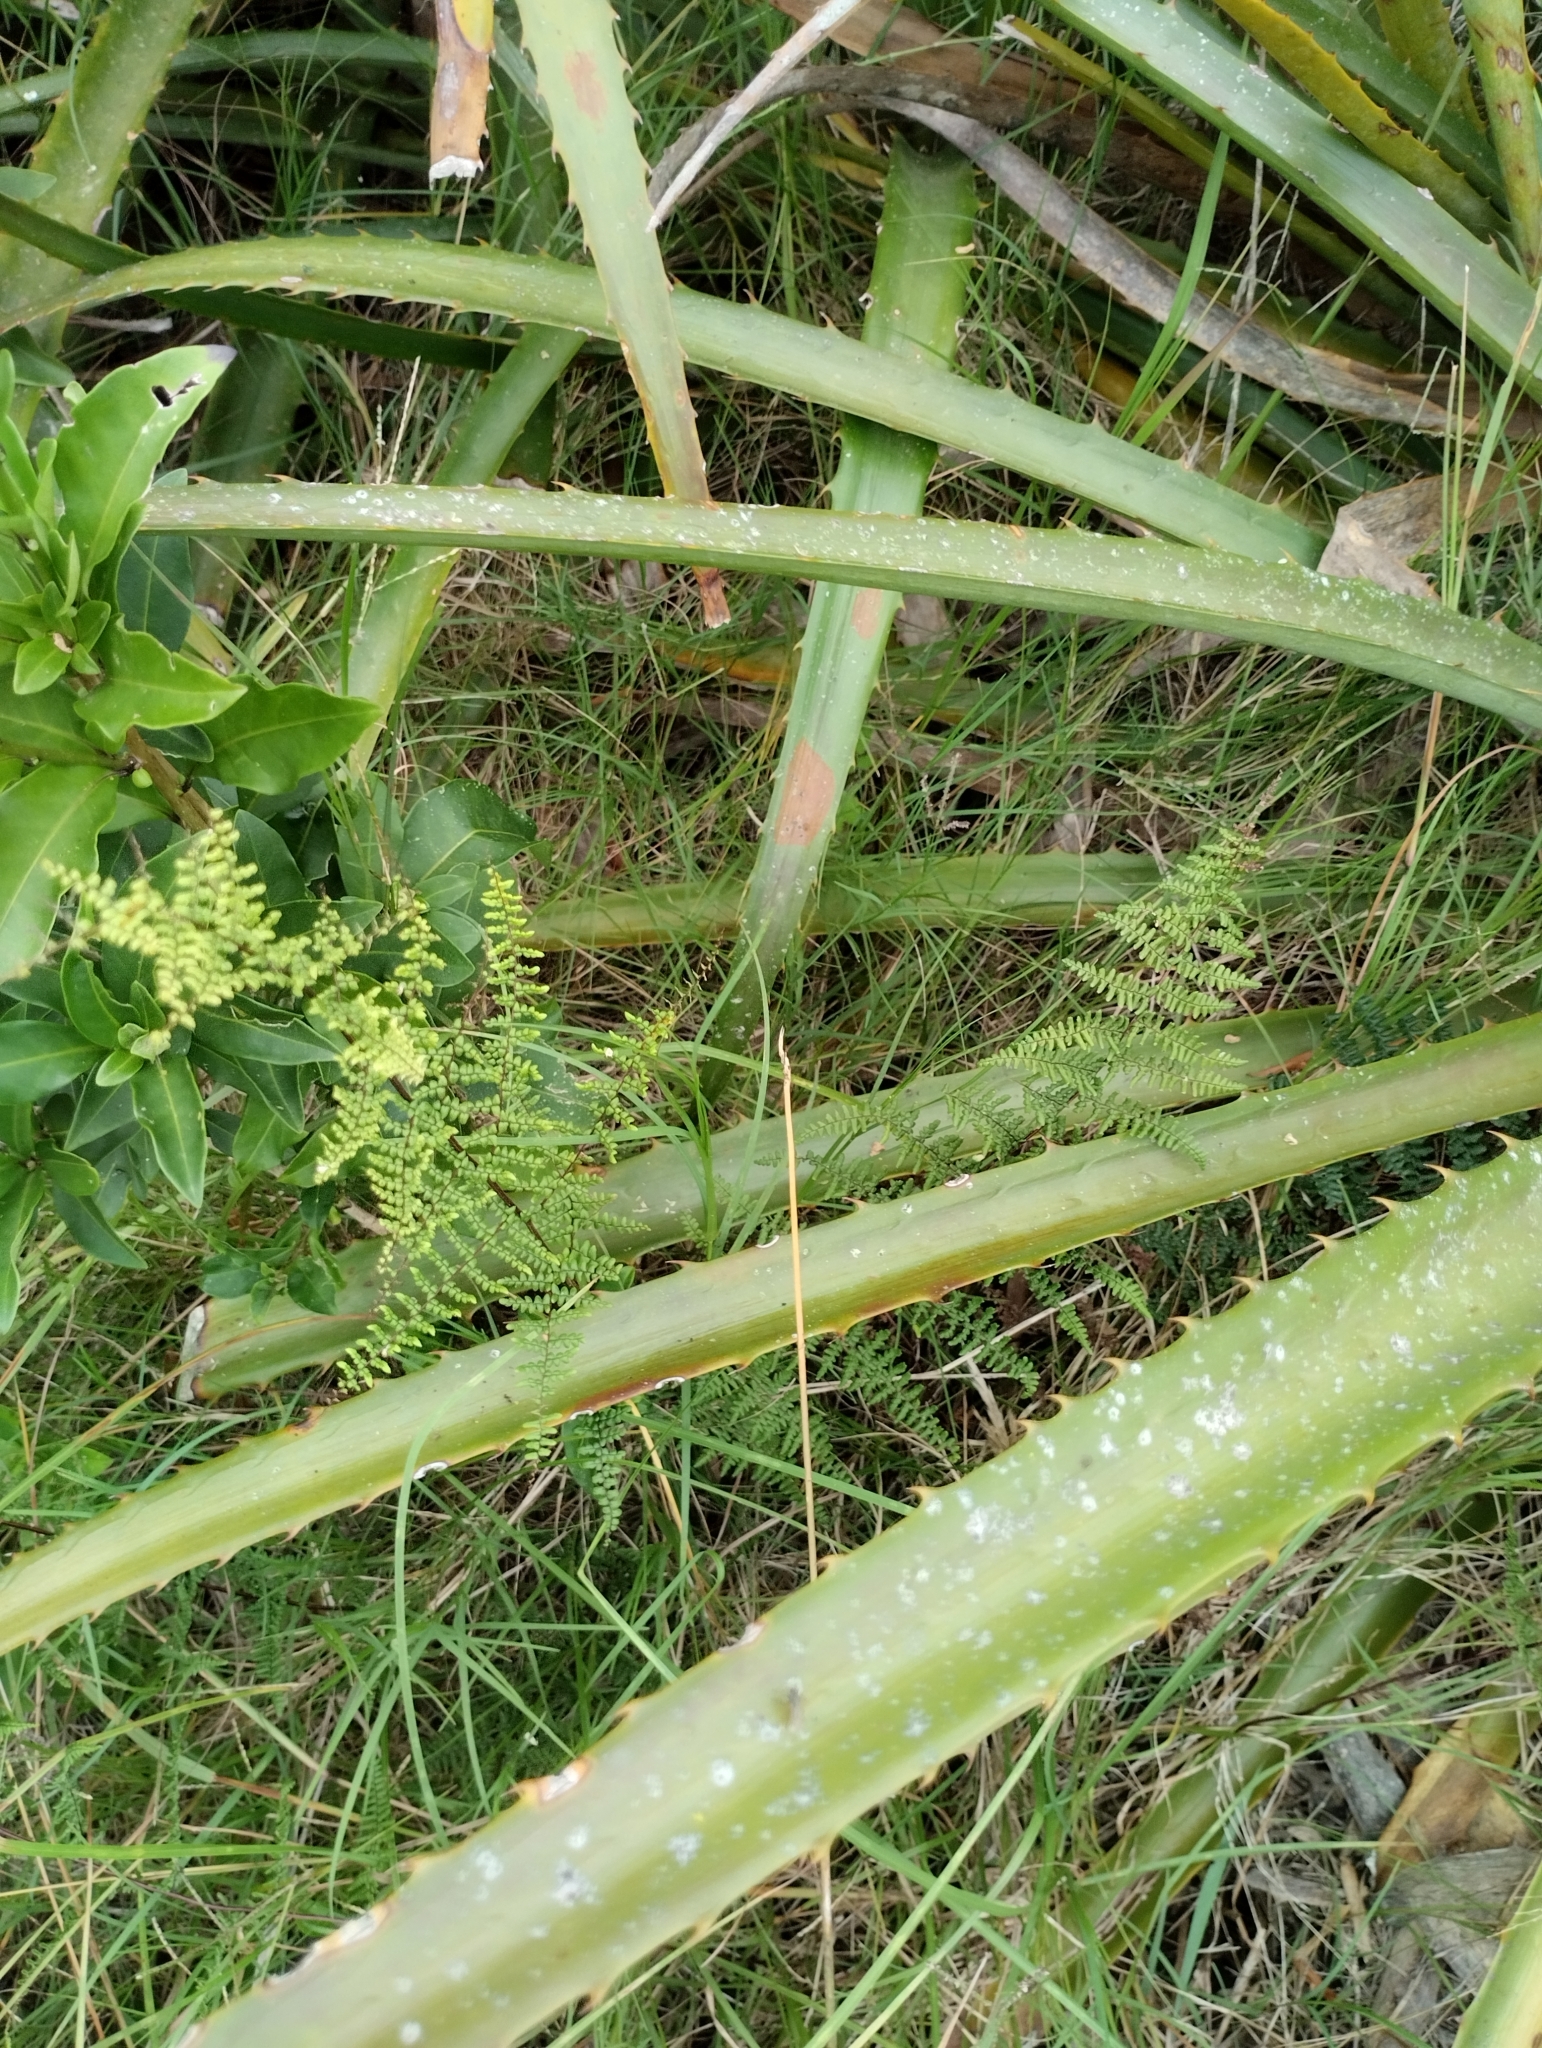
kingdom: Plantae
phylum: Tracheophyta
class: Polypodiopsida
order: Polypodiales
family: Pteridaceae
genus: Adiantopsis
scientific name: Adiantopsis chlorophylla
